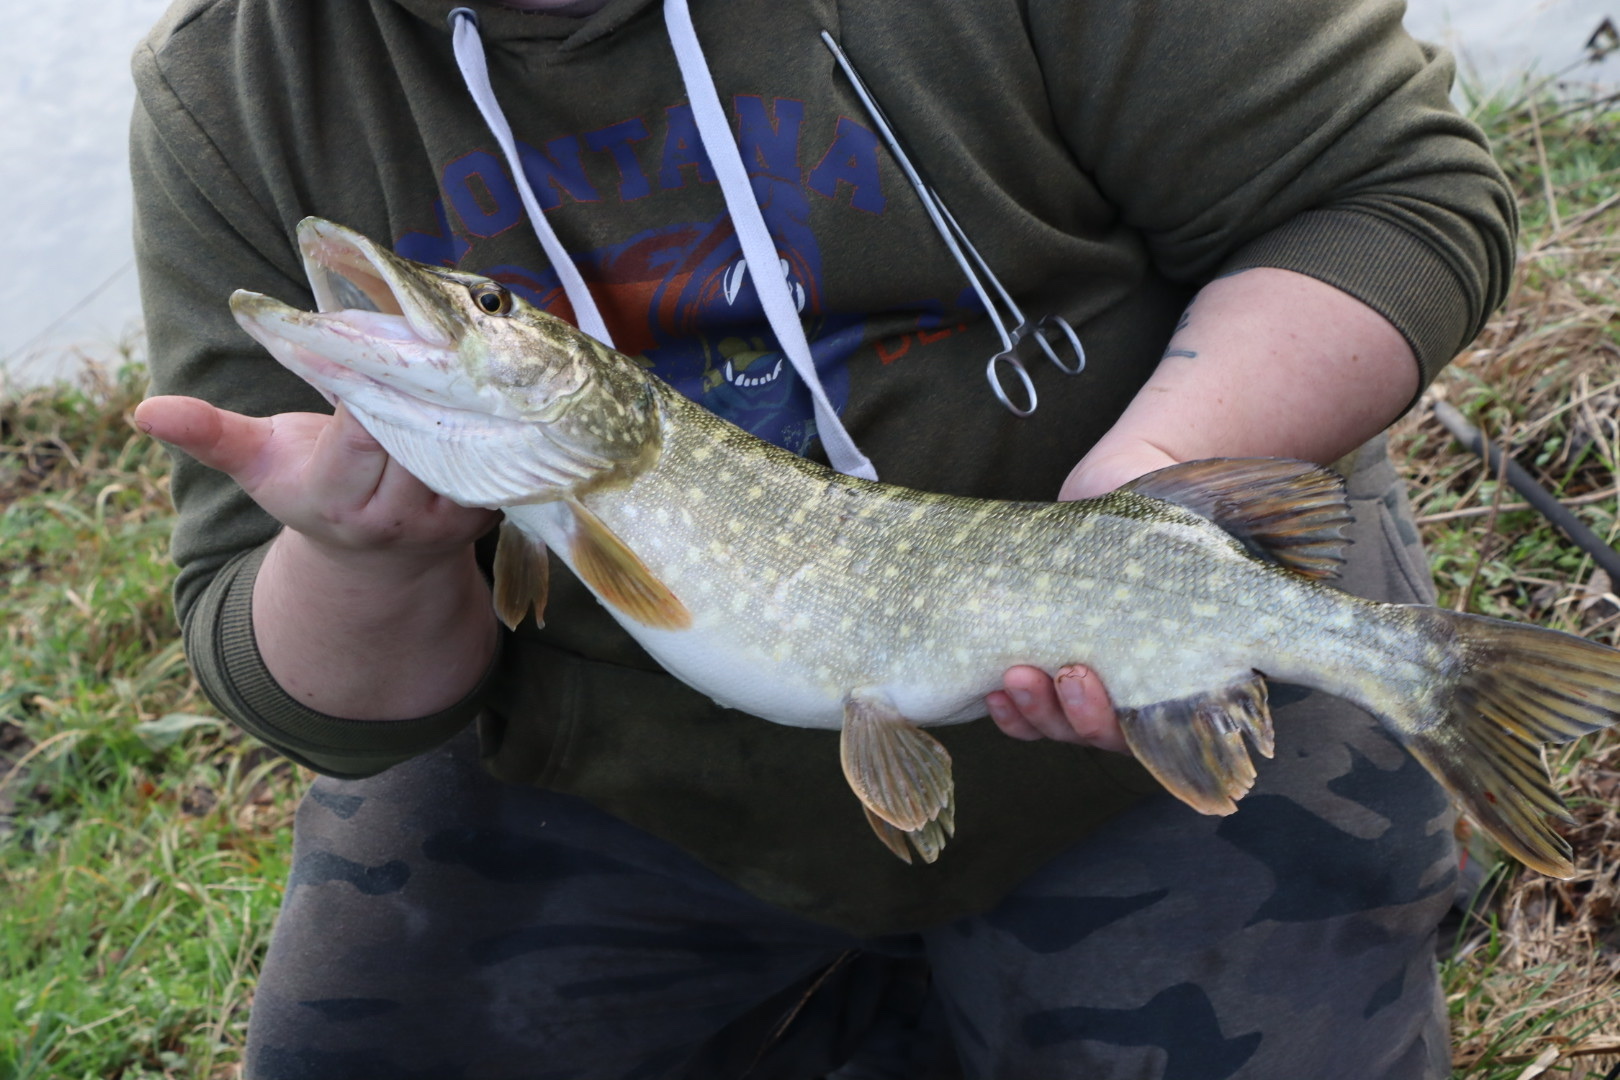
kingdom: Animalia
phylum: Chordata
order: Esociformes
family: Esocidae
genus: Esox
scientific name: Esox lucius
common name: Northern pike
